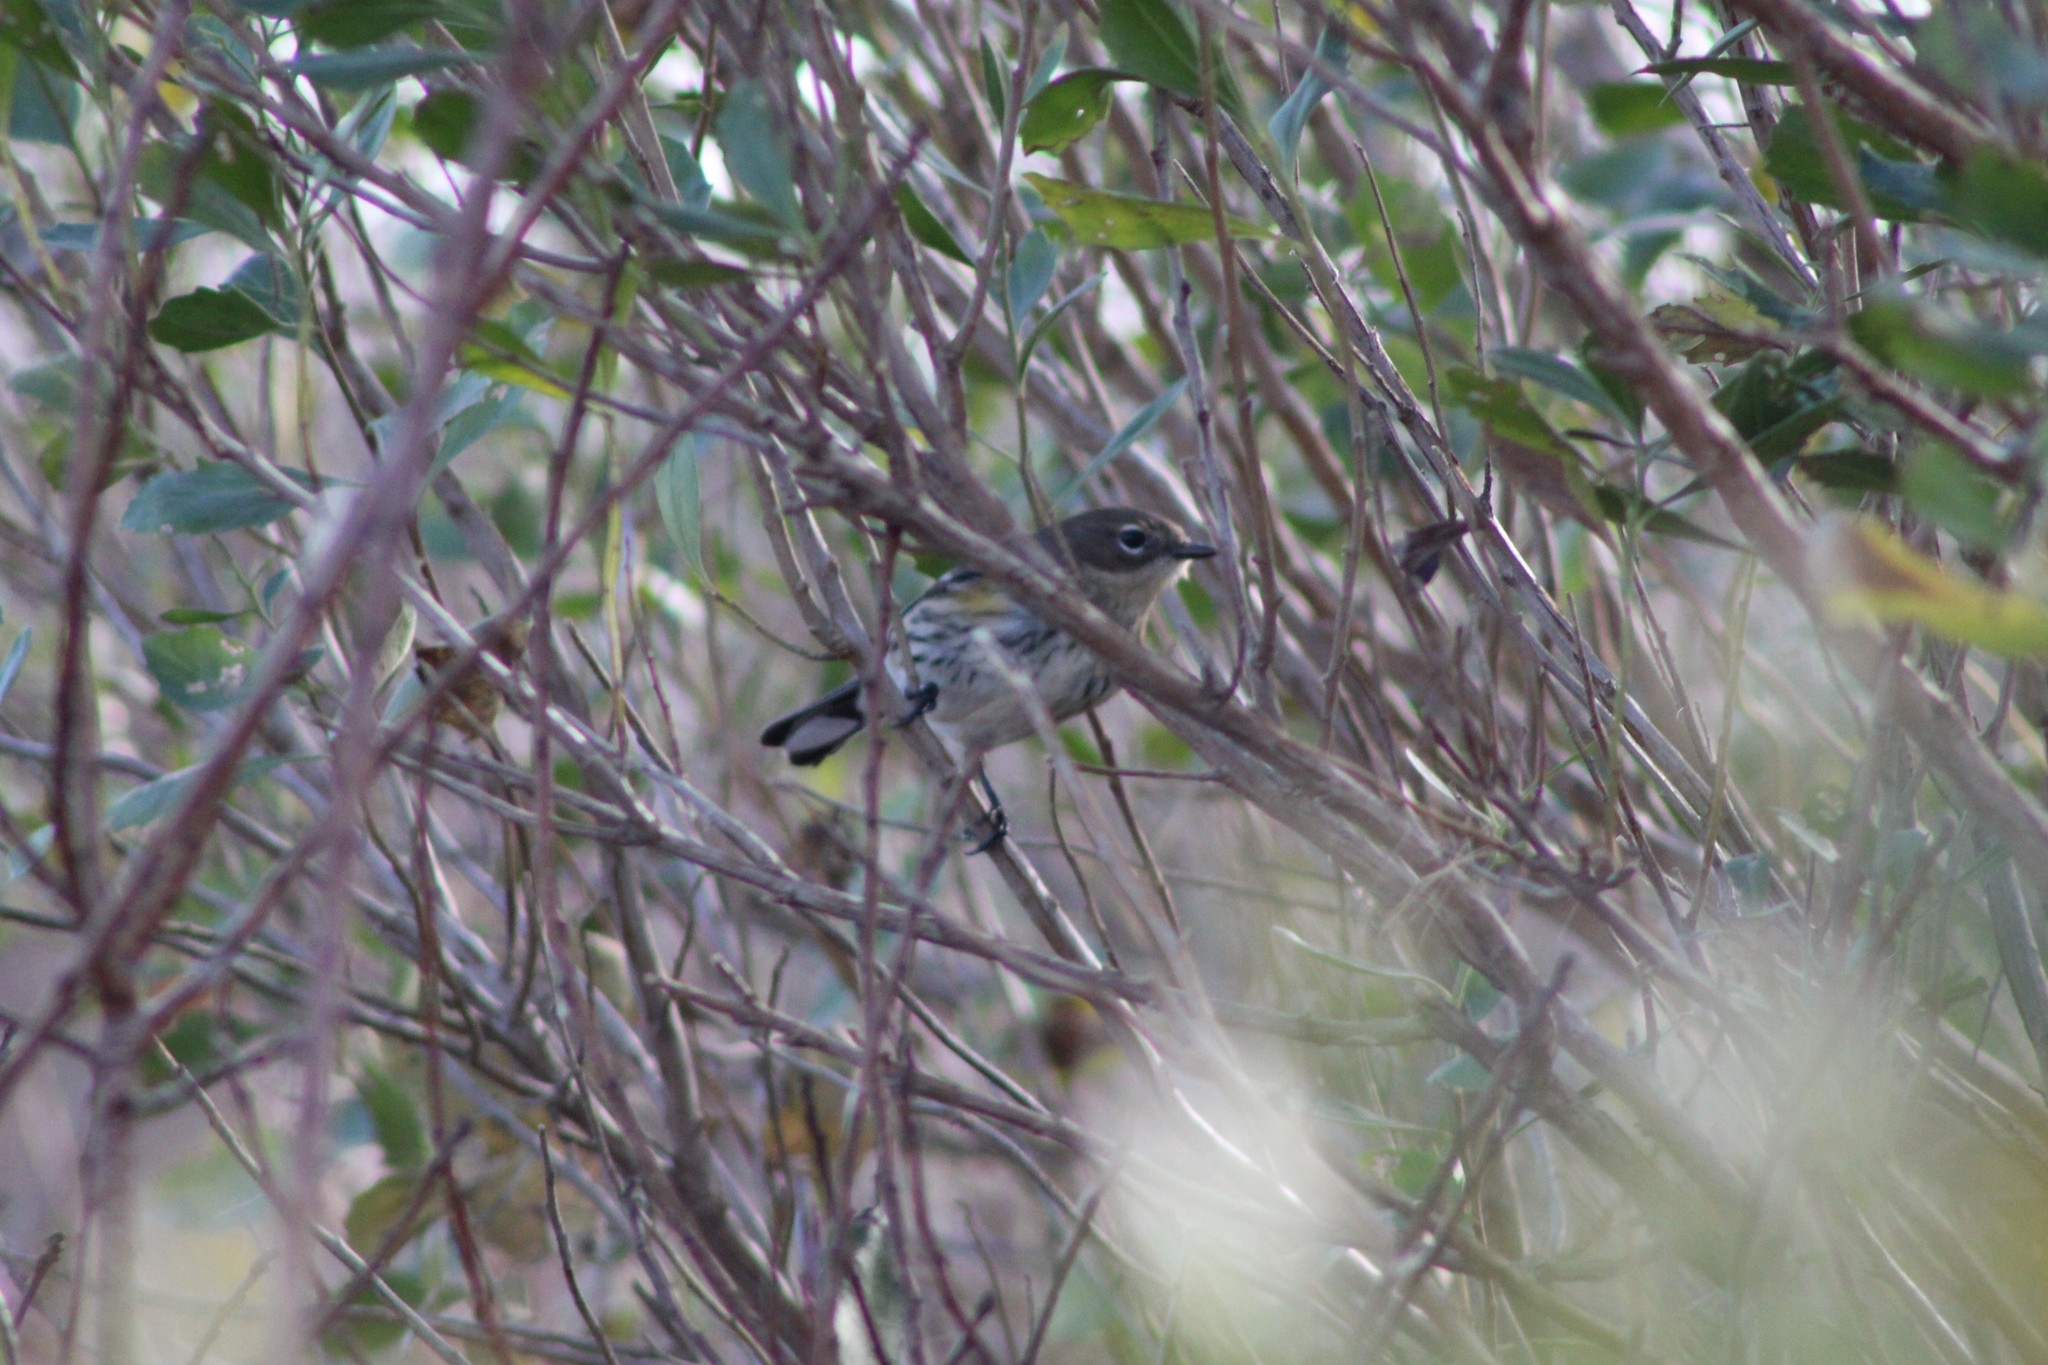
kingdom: Animalia
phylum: Chordata
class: Aves
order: Passeriformes
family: Parulidae
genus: Setophaga
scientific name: Setophaga coronata
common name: Myrtle warbler
